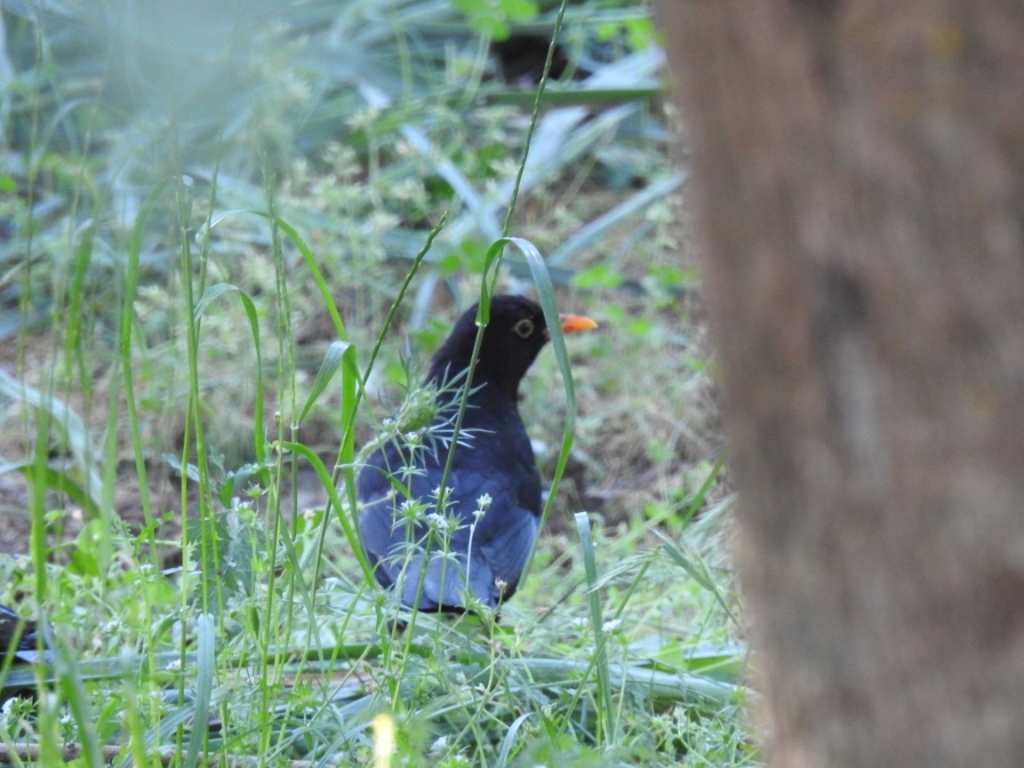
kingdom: Animalia
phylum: Chordata
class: Aves
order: Passeriformes
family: Turdidae
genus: Turdus
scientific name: Turdus merula
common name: Common blackbird
